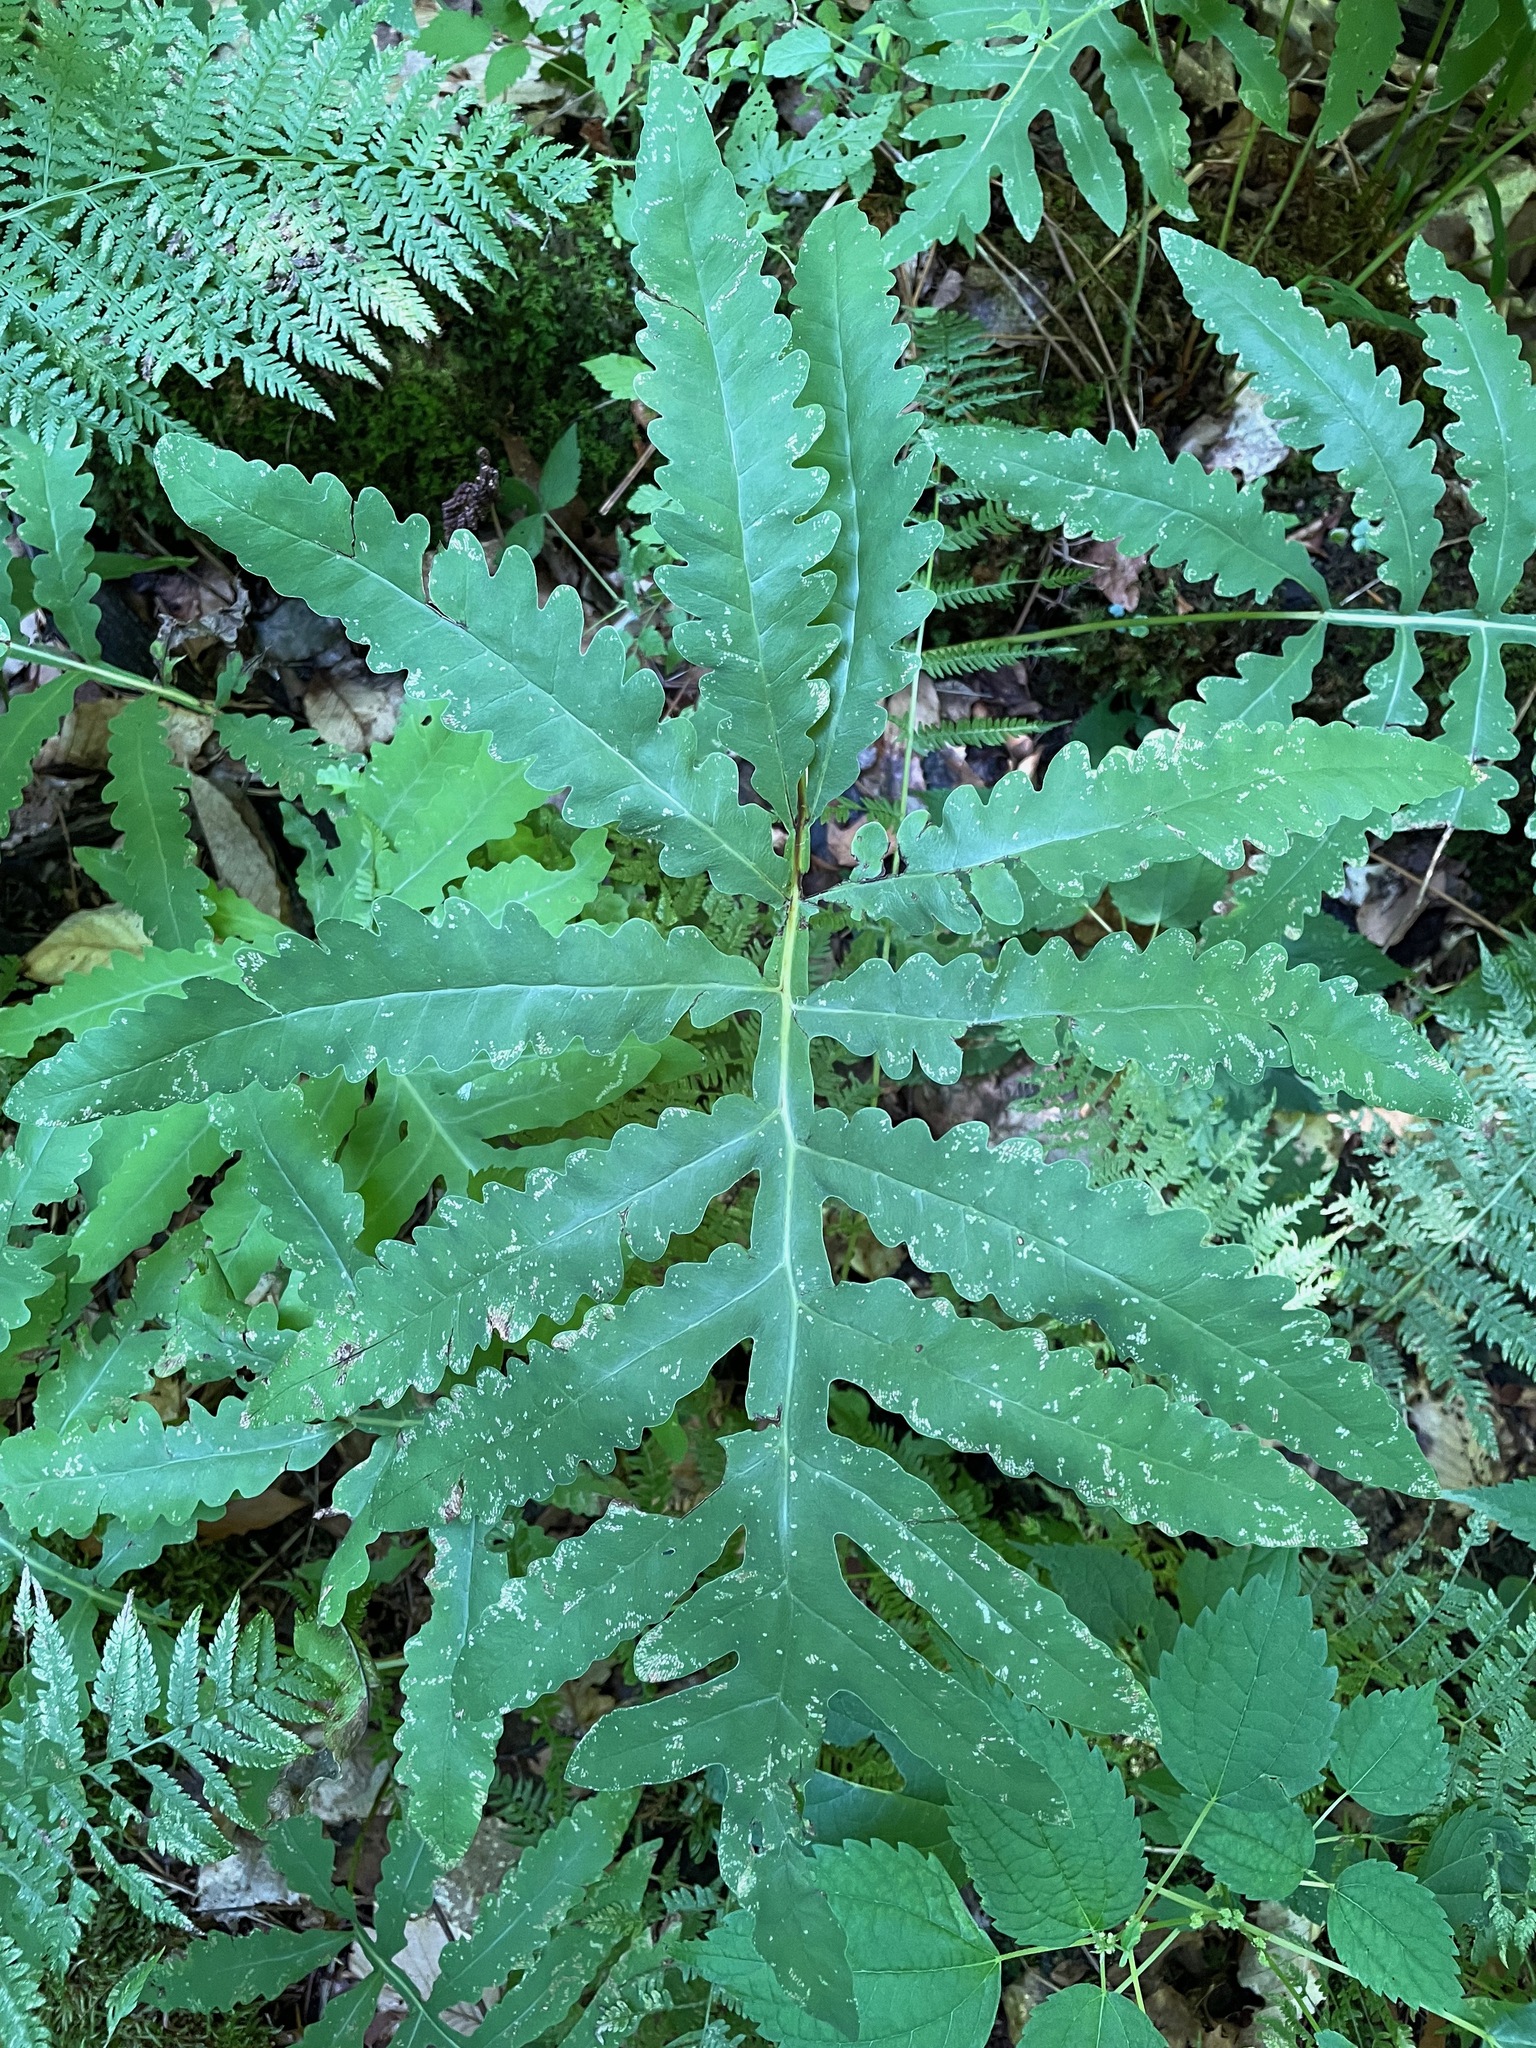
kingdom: Plantae
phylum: Tracheophyta
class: Polypodiopsida
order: Polypodiales
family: Onocleaceae
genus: Onoclea
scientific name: Onoclea sensibilis
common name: Sensitive fern
